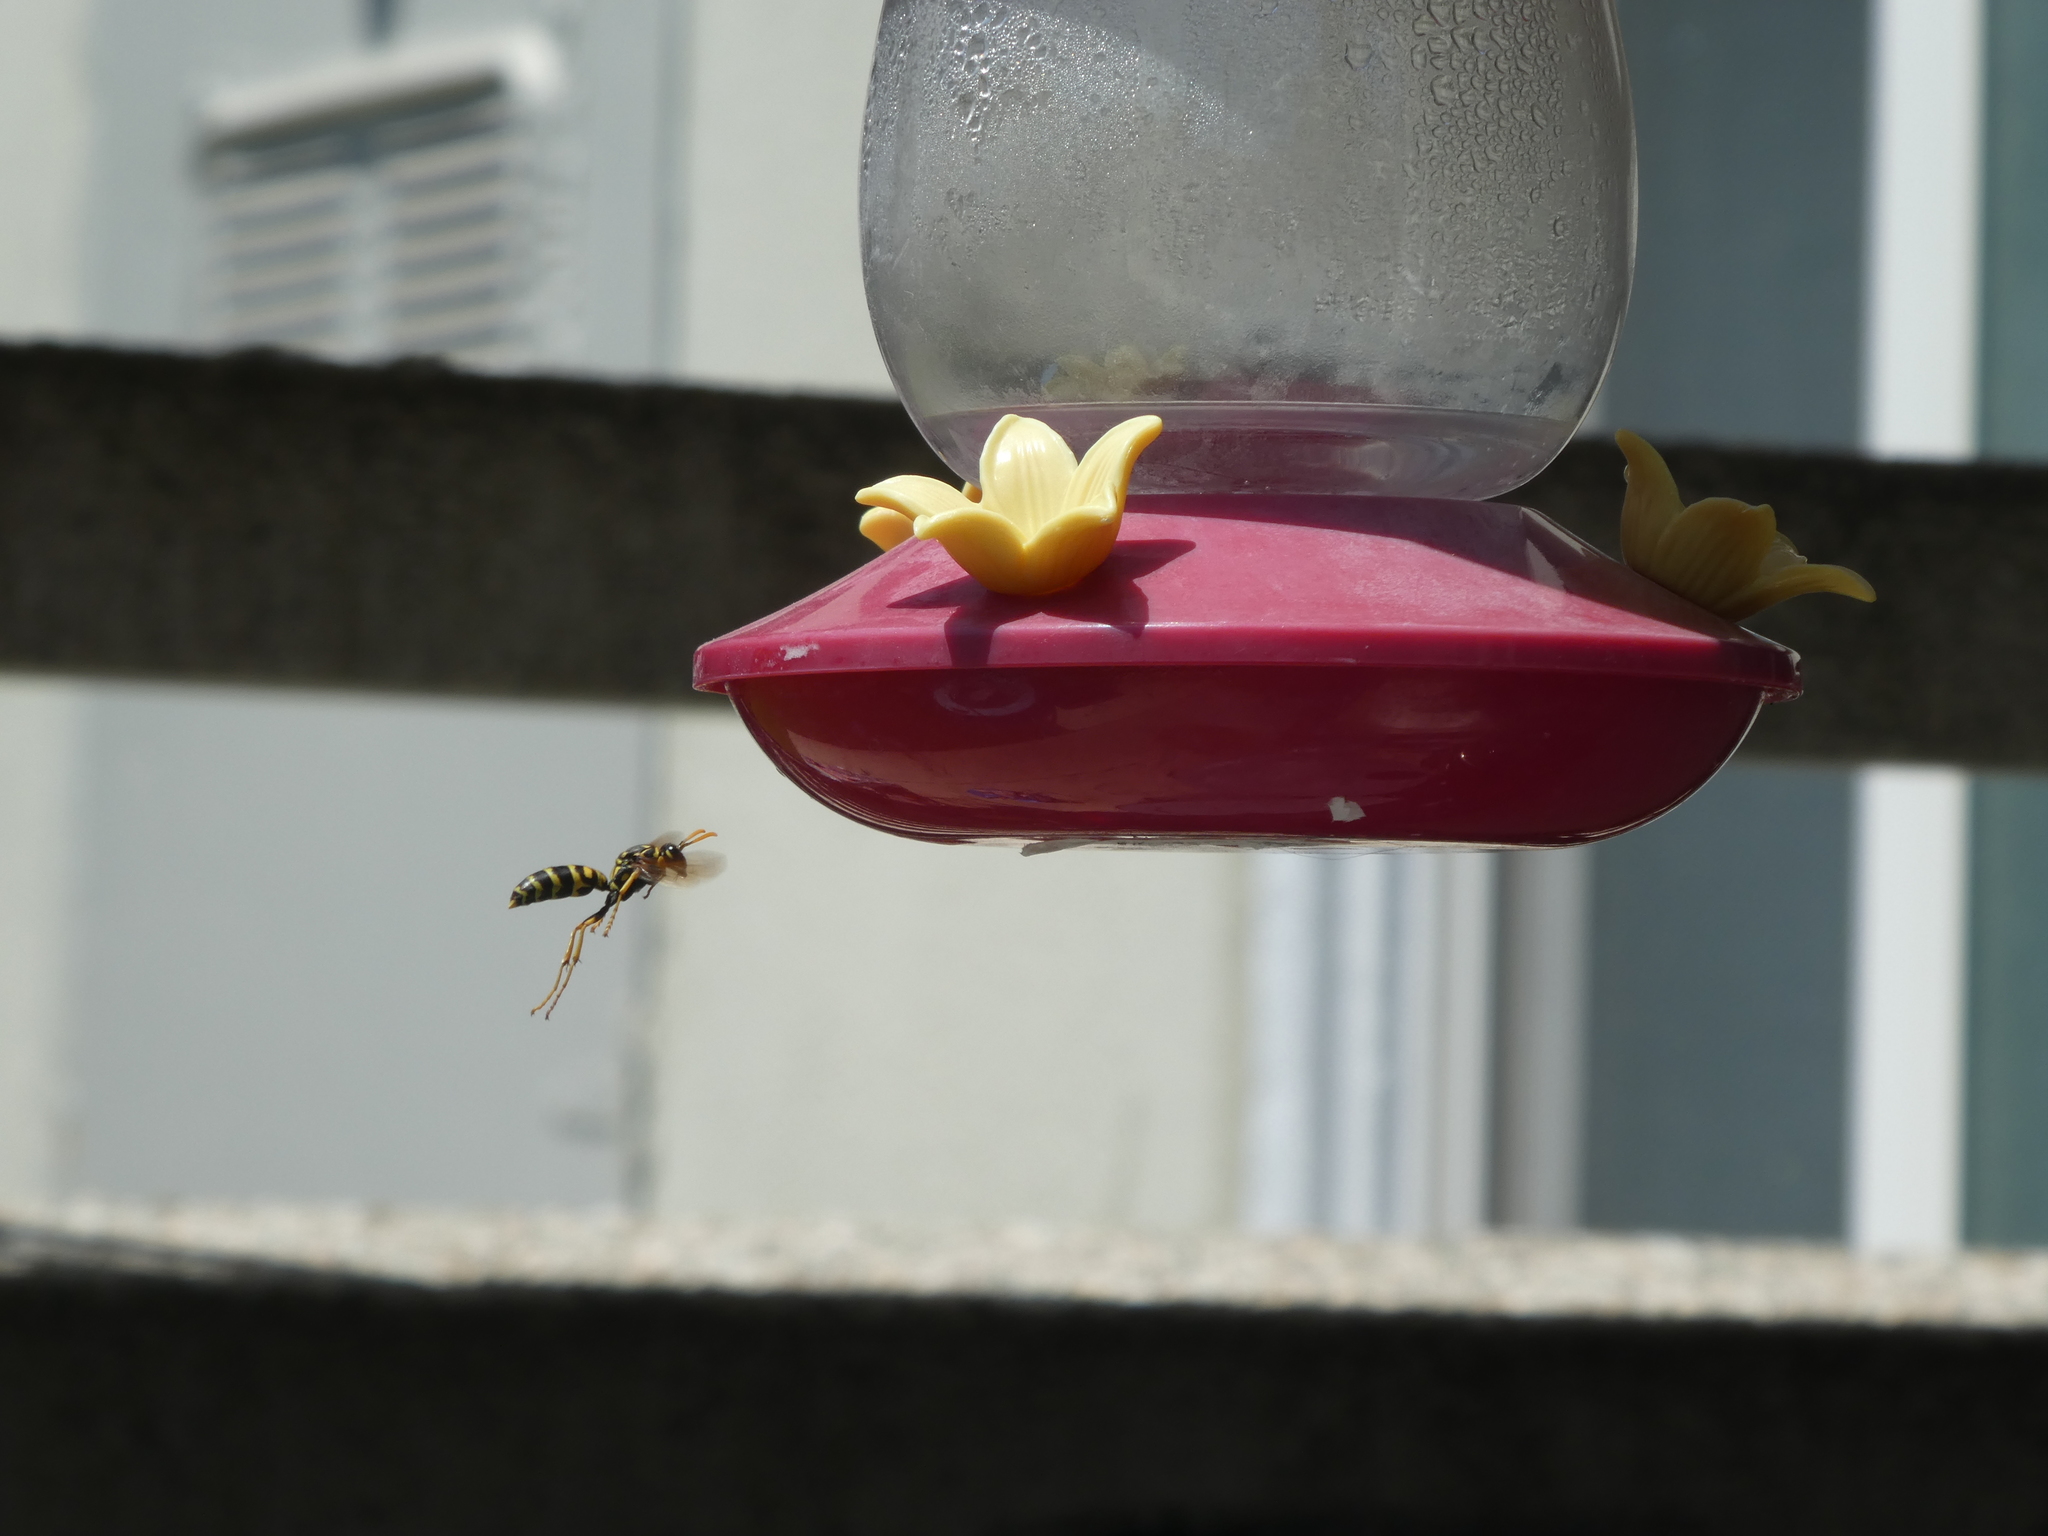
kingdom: Animalia
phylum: Arthropoda
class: Insecta
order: Hymenoptera
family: Eumenidae
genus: Polistes
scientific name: Polistes dominula
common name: Paper wasp
